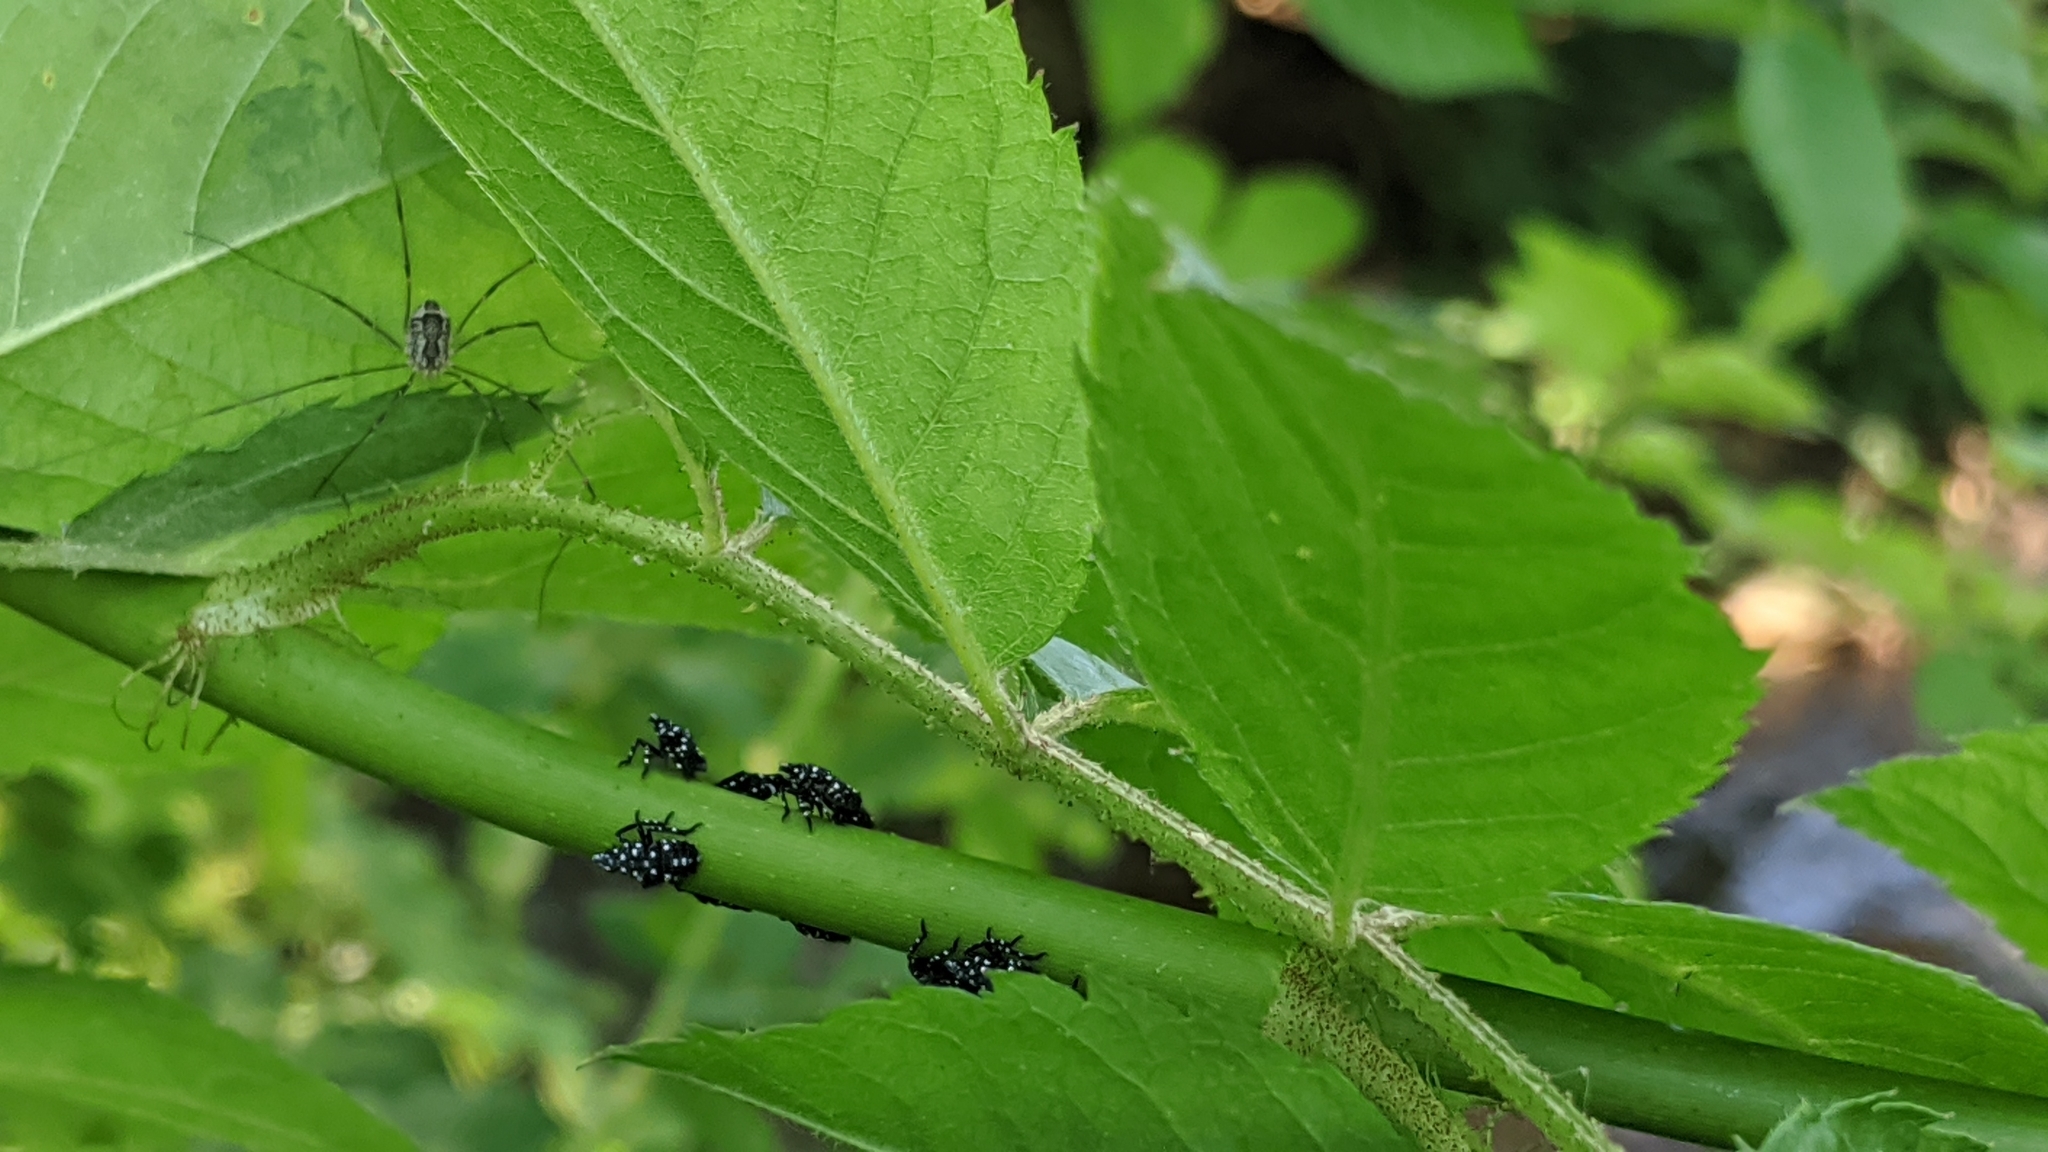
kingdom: Animalia
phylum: Arthropoda
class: Insecta
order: Hemiptera
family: Fulgoridae
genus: Lycorma
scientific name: Lycorma delicatula
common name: Spotted lanternfly
